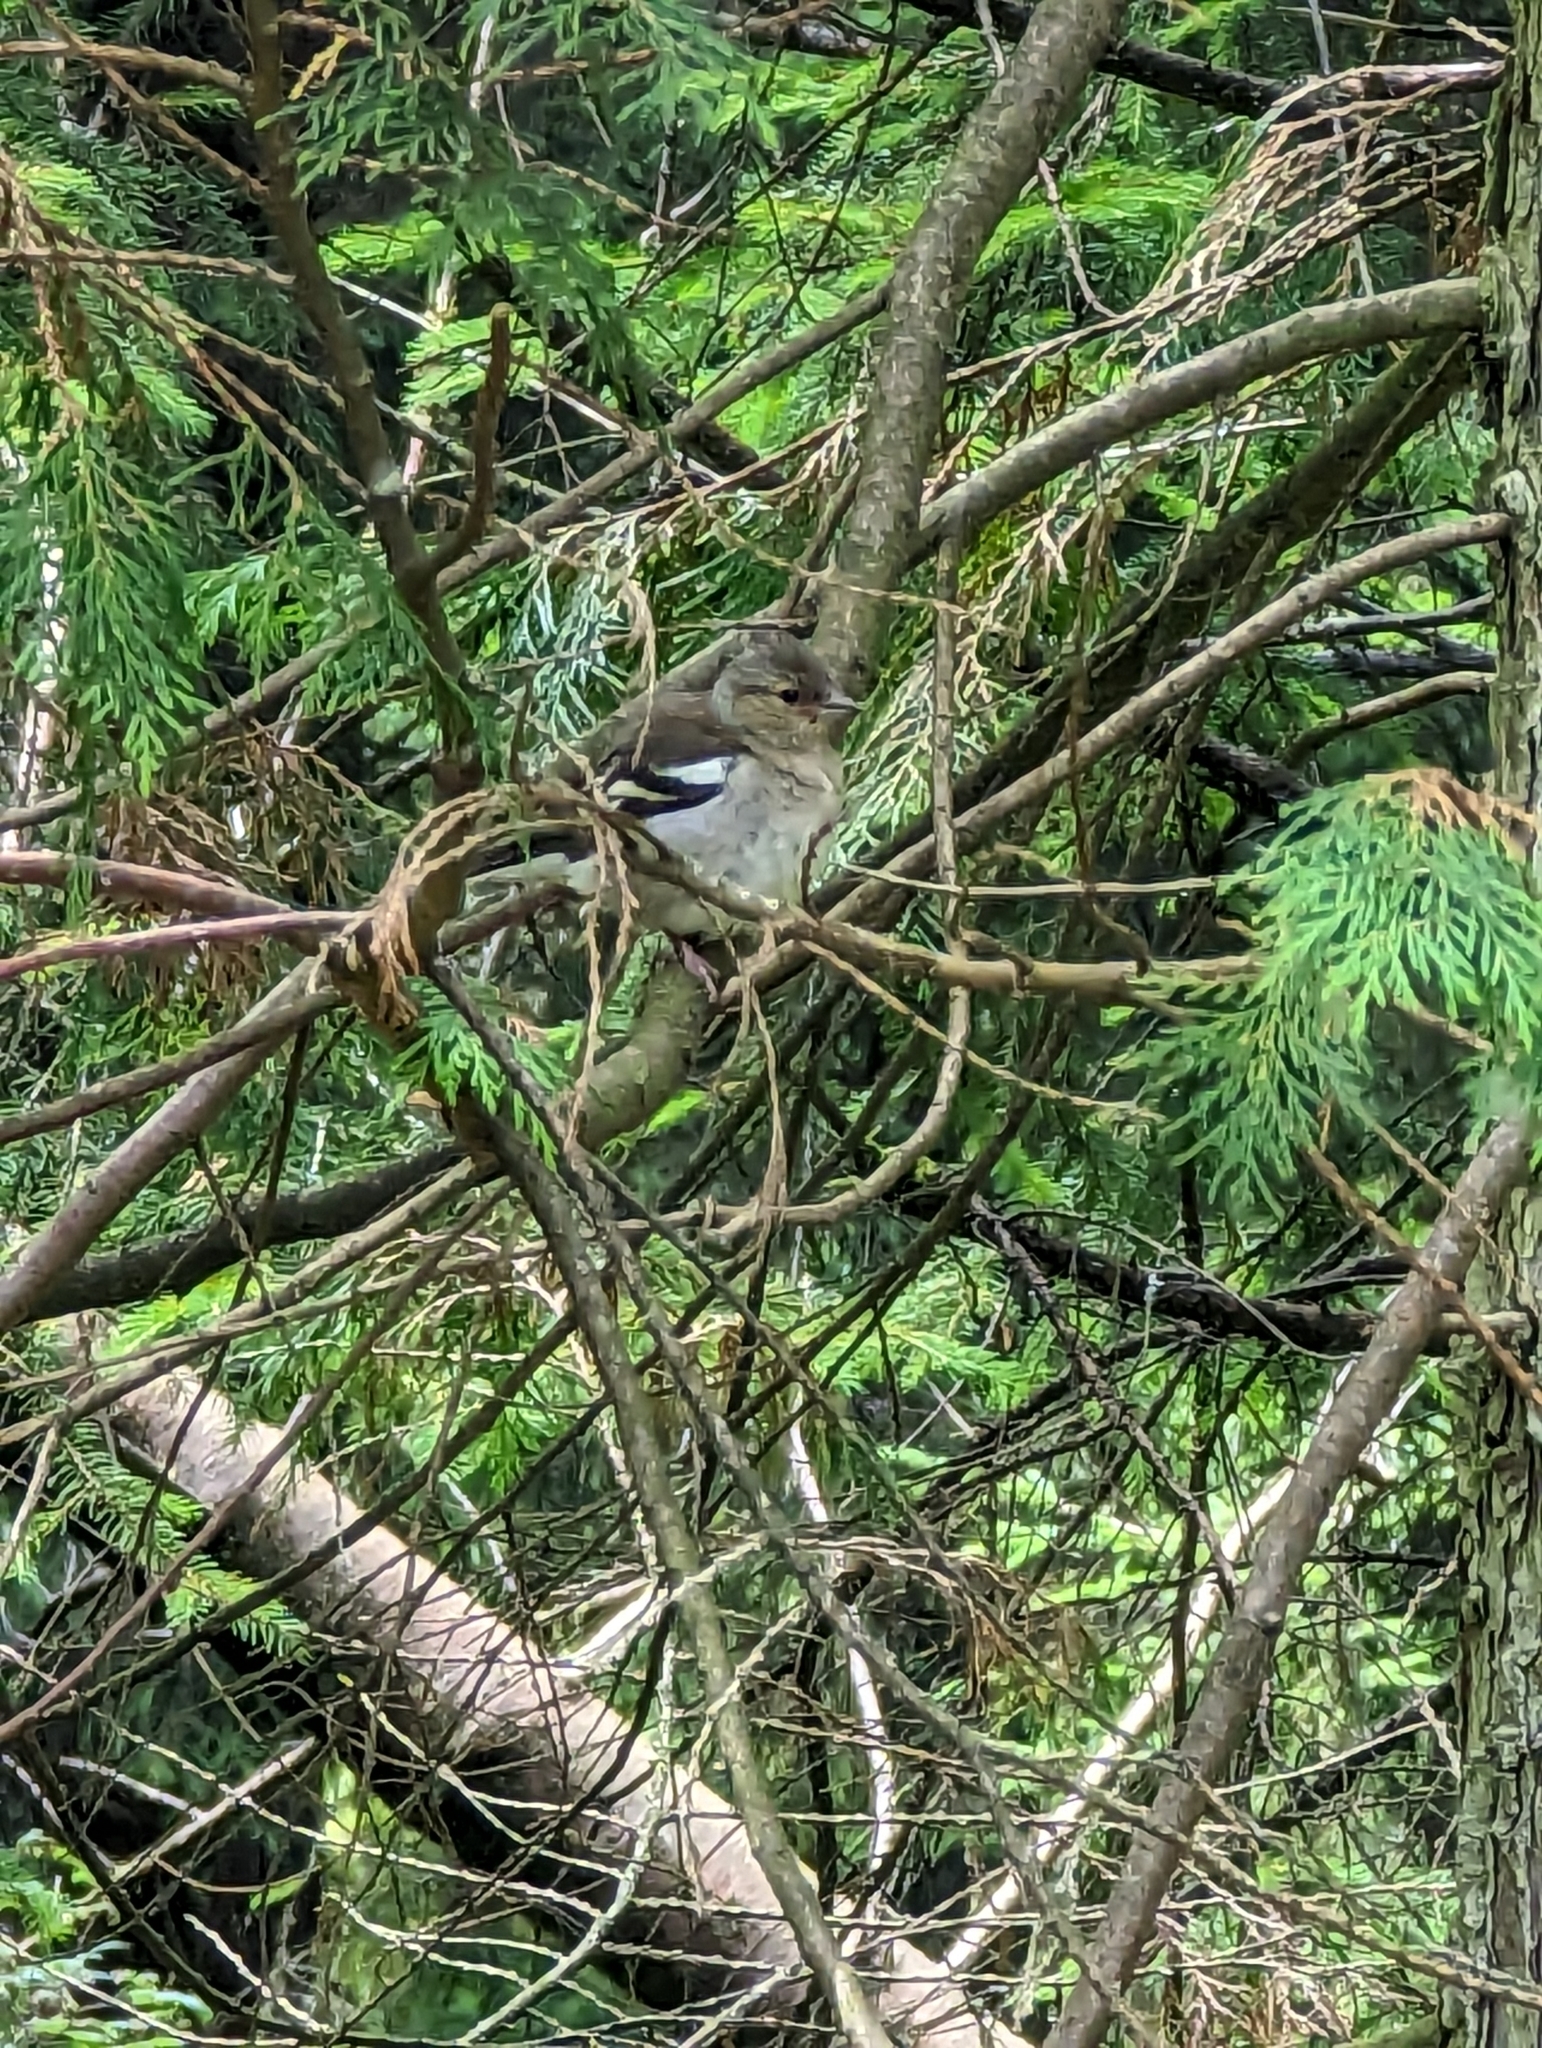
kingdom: Animalia
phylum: Chordata
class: Aves
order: Passeriformes
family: Fringillidae
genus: Fringilla
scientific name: Fringilla coelebs
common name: Common chaffinch
